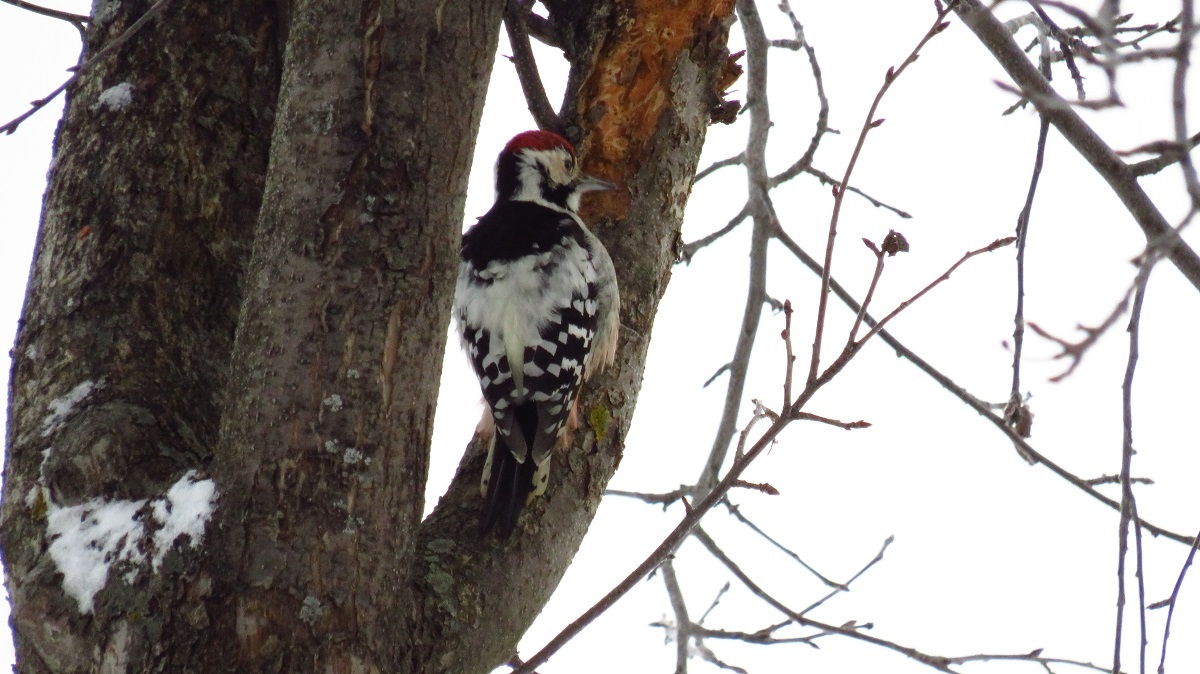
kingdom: Animalia
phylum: Chordata
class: Aves
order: Piciformes
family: Picidae
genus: Dendrocopos
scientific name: Dendrocopos leucotos
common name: White-backed woodpecker
